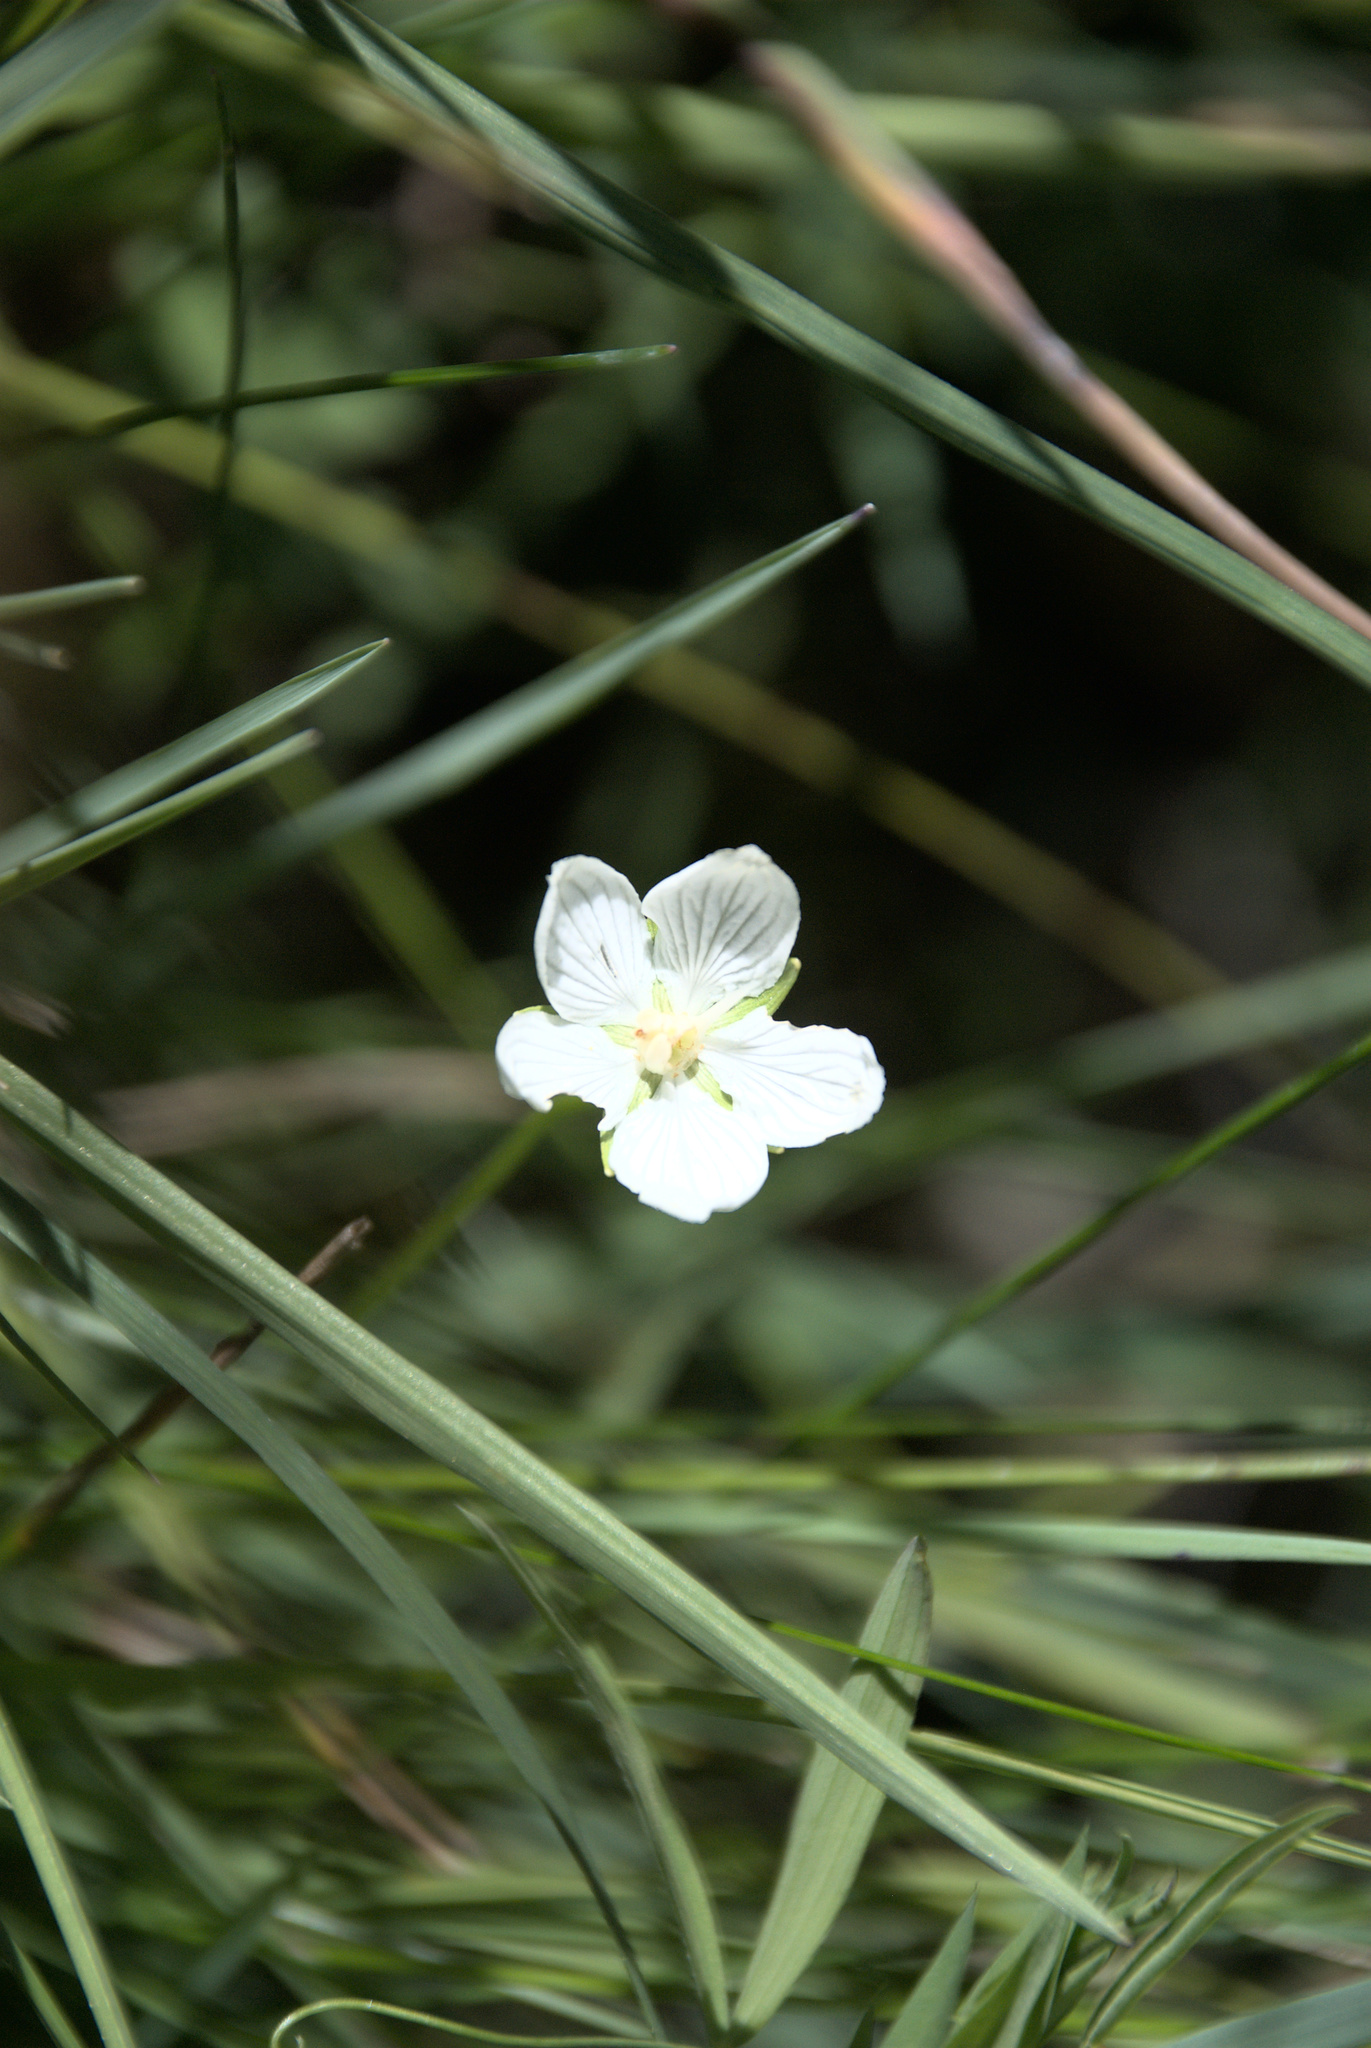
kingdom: Plantae
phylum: Tracheophyta
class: Magnoliopsida
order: Celastrales
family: Parnassiaceae
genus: Parnassia
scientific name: Parnassia palustris
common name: Grass-of-parnassus
